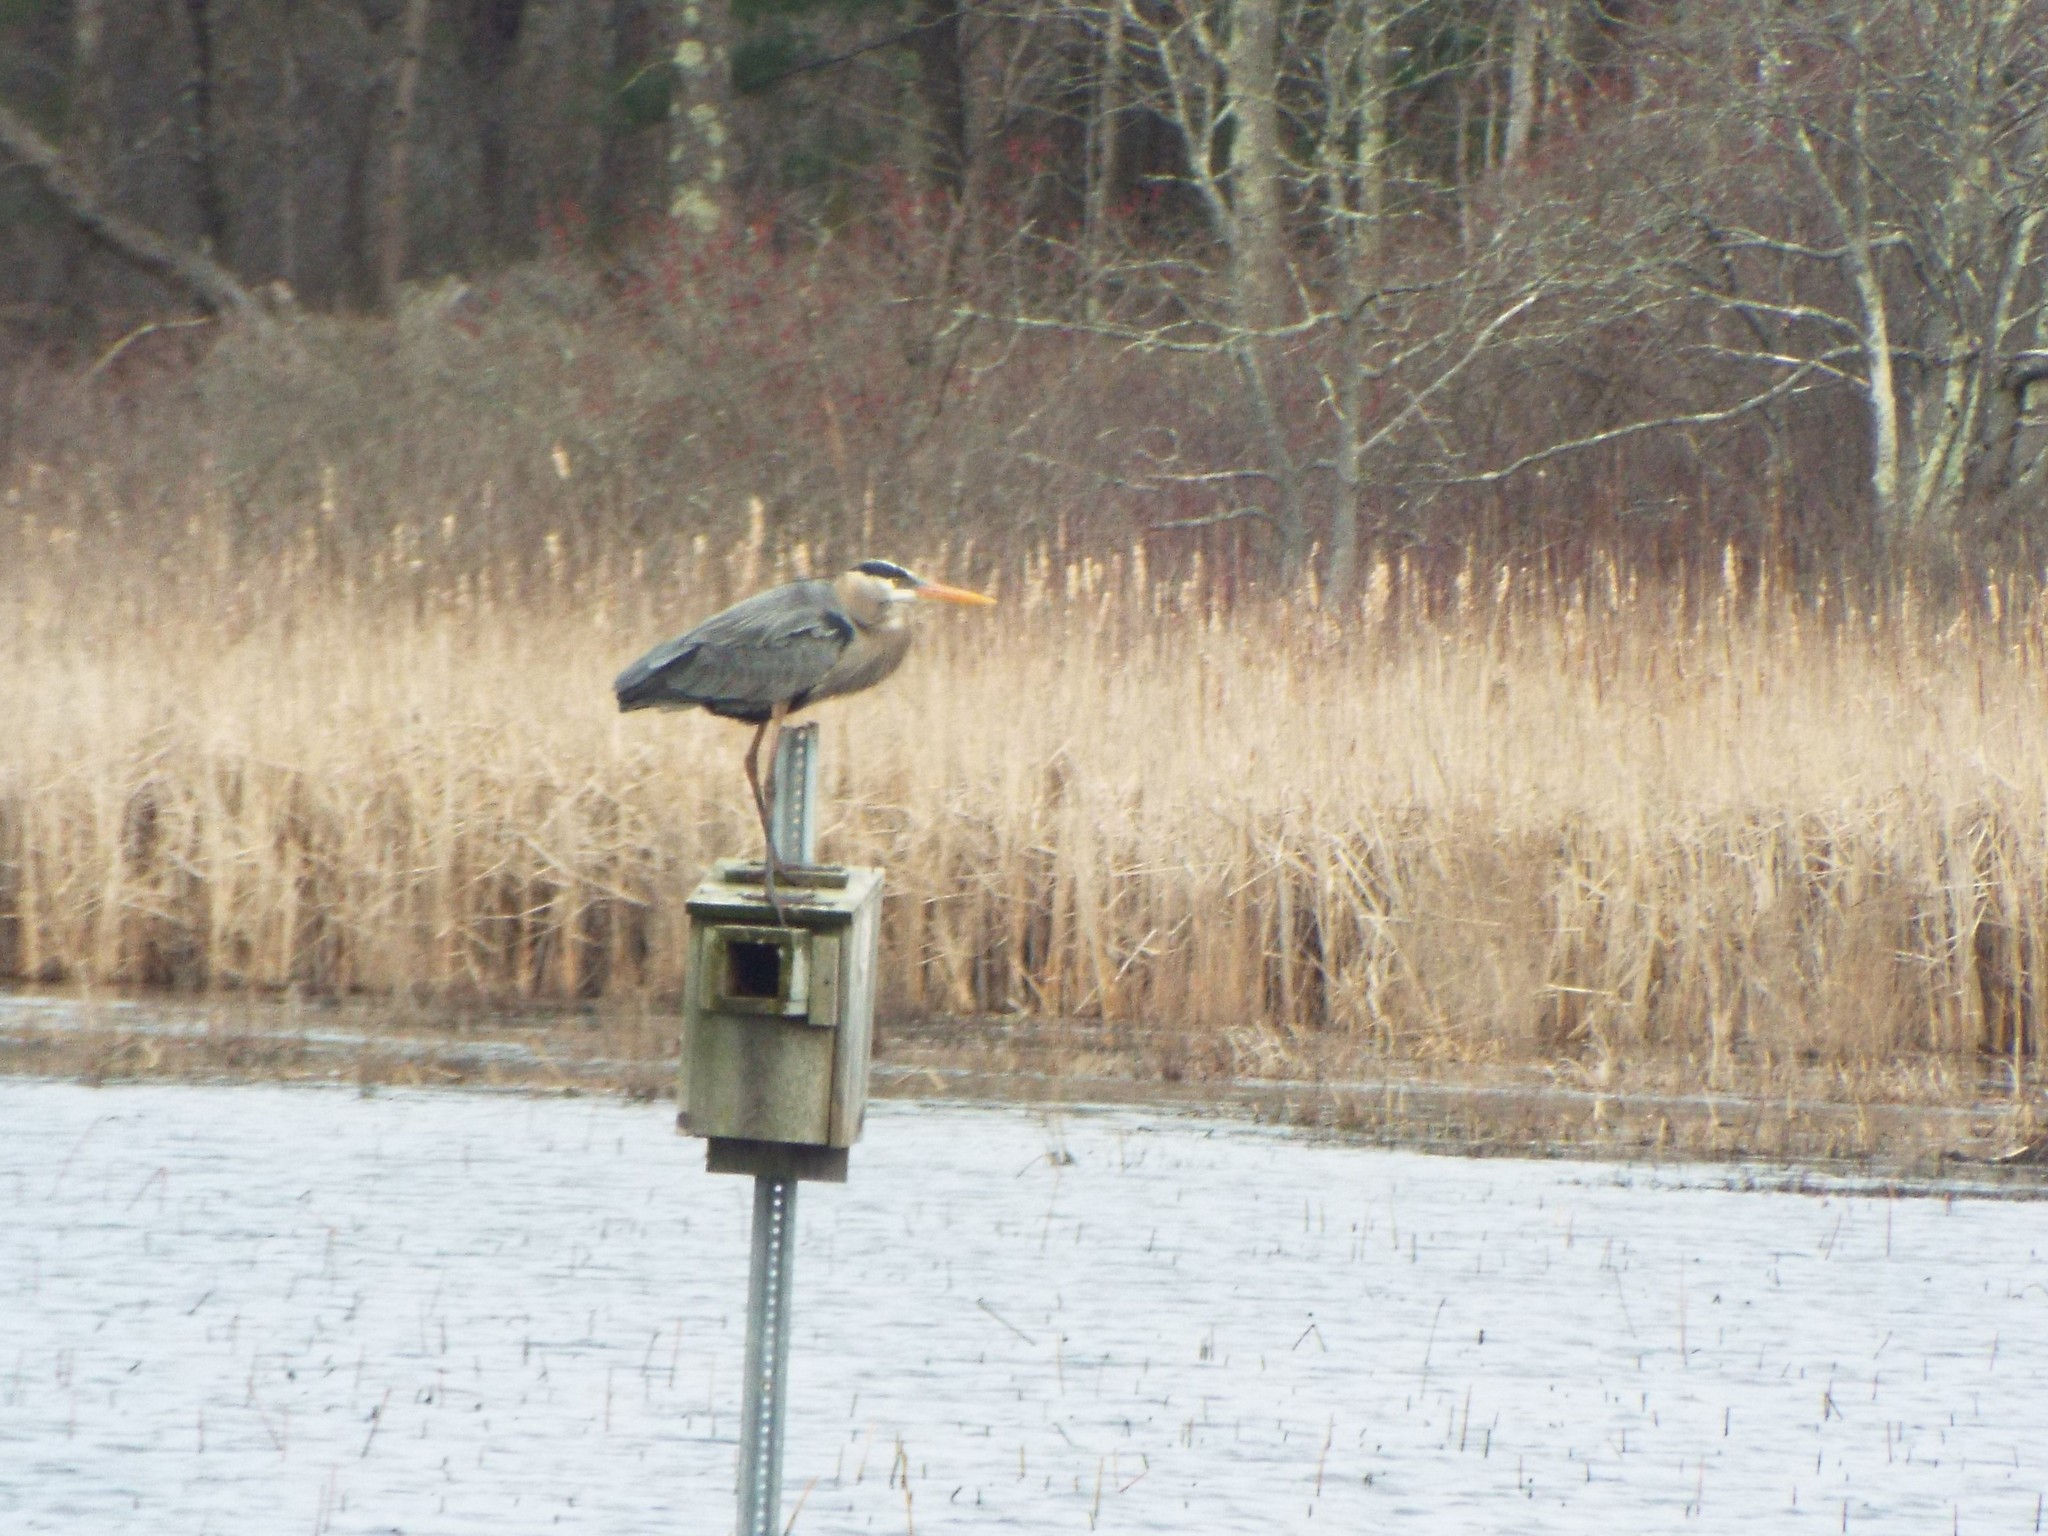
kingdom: Animalia
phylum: Chordata
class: Aves
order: Pelecaniformes
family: Ardeidae
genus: Ardea
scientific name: Ardea herodias
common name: Great blue heron
